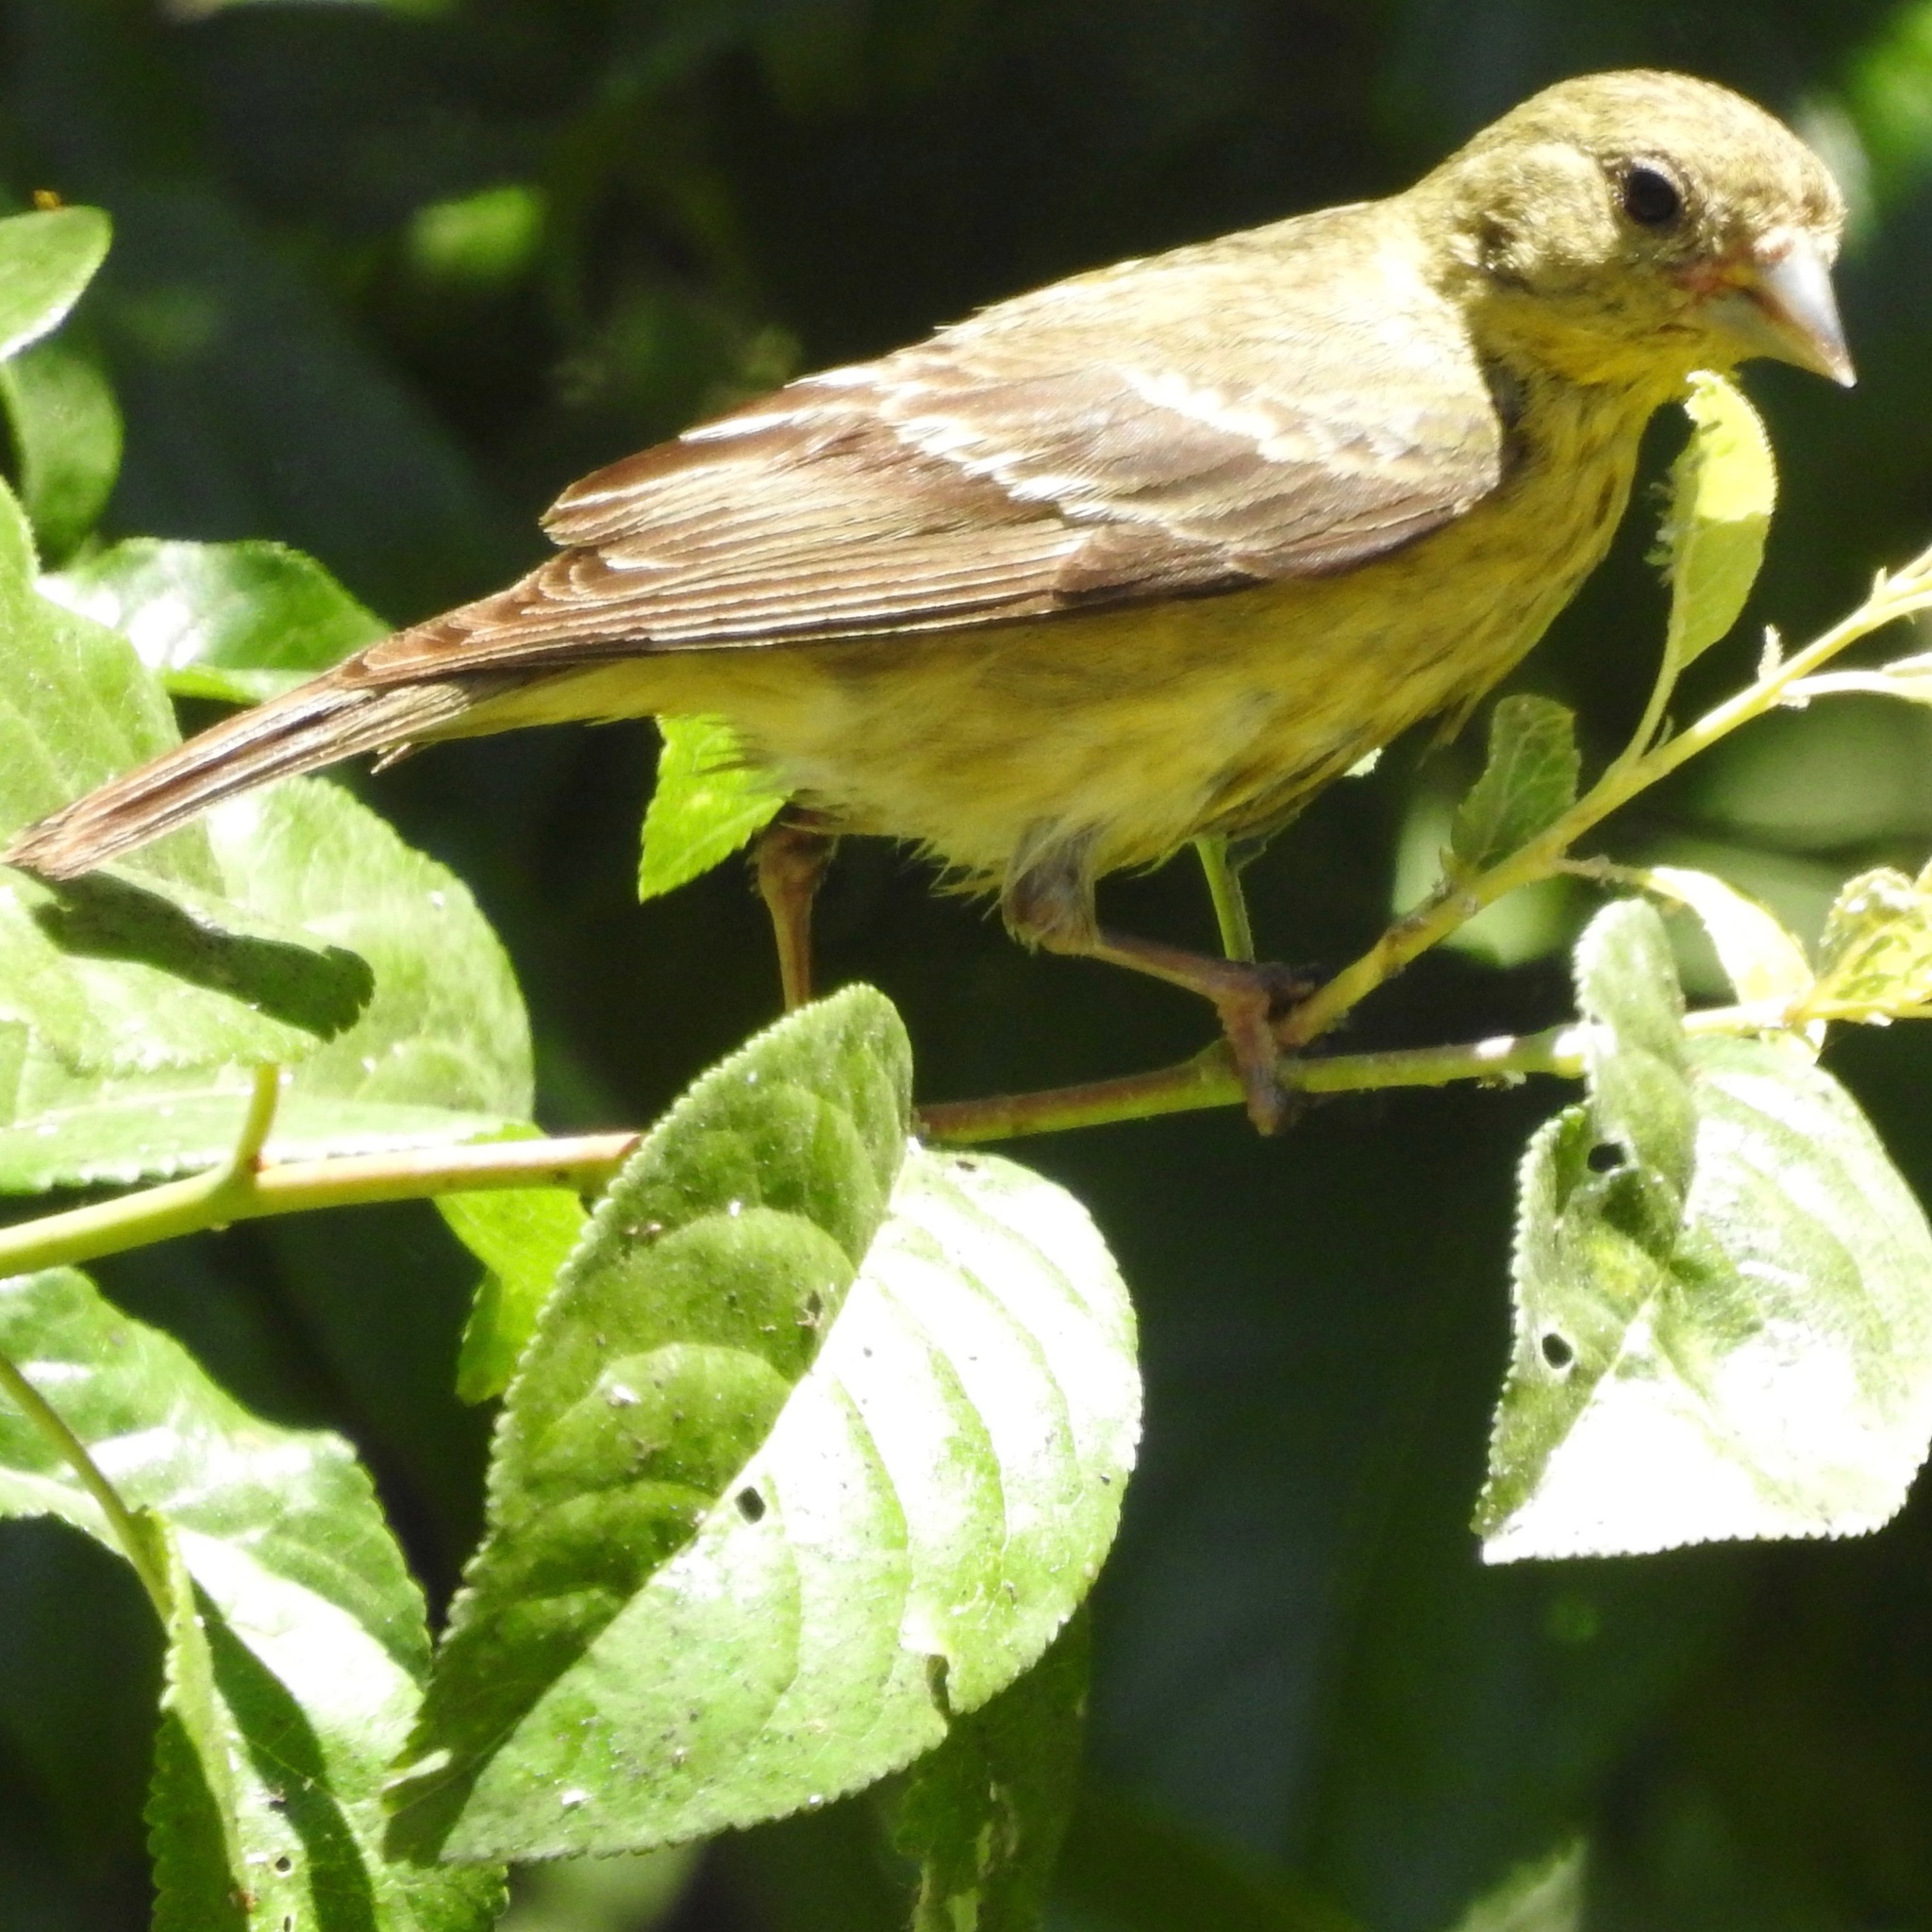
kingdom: Animalia
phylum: Chordata
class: Aves
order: Passeriformes
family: Fringillidae
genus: Spinus
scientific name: Spinus psaltria
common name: Lesser goldfinch
